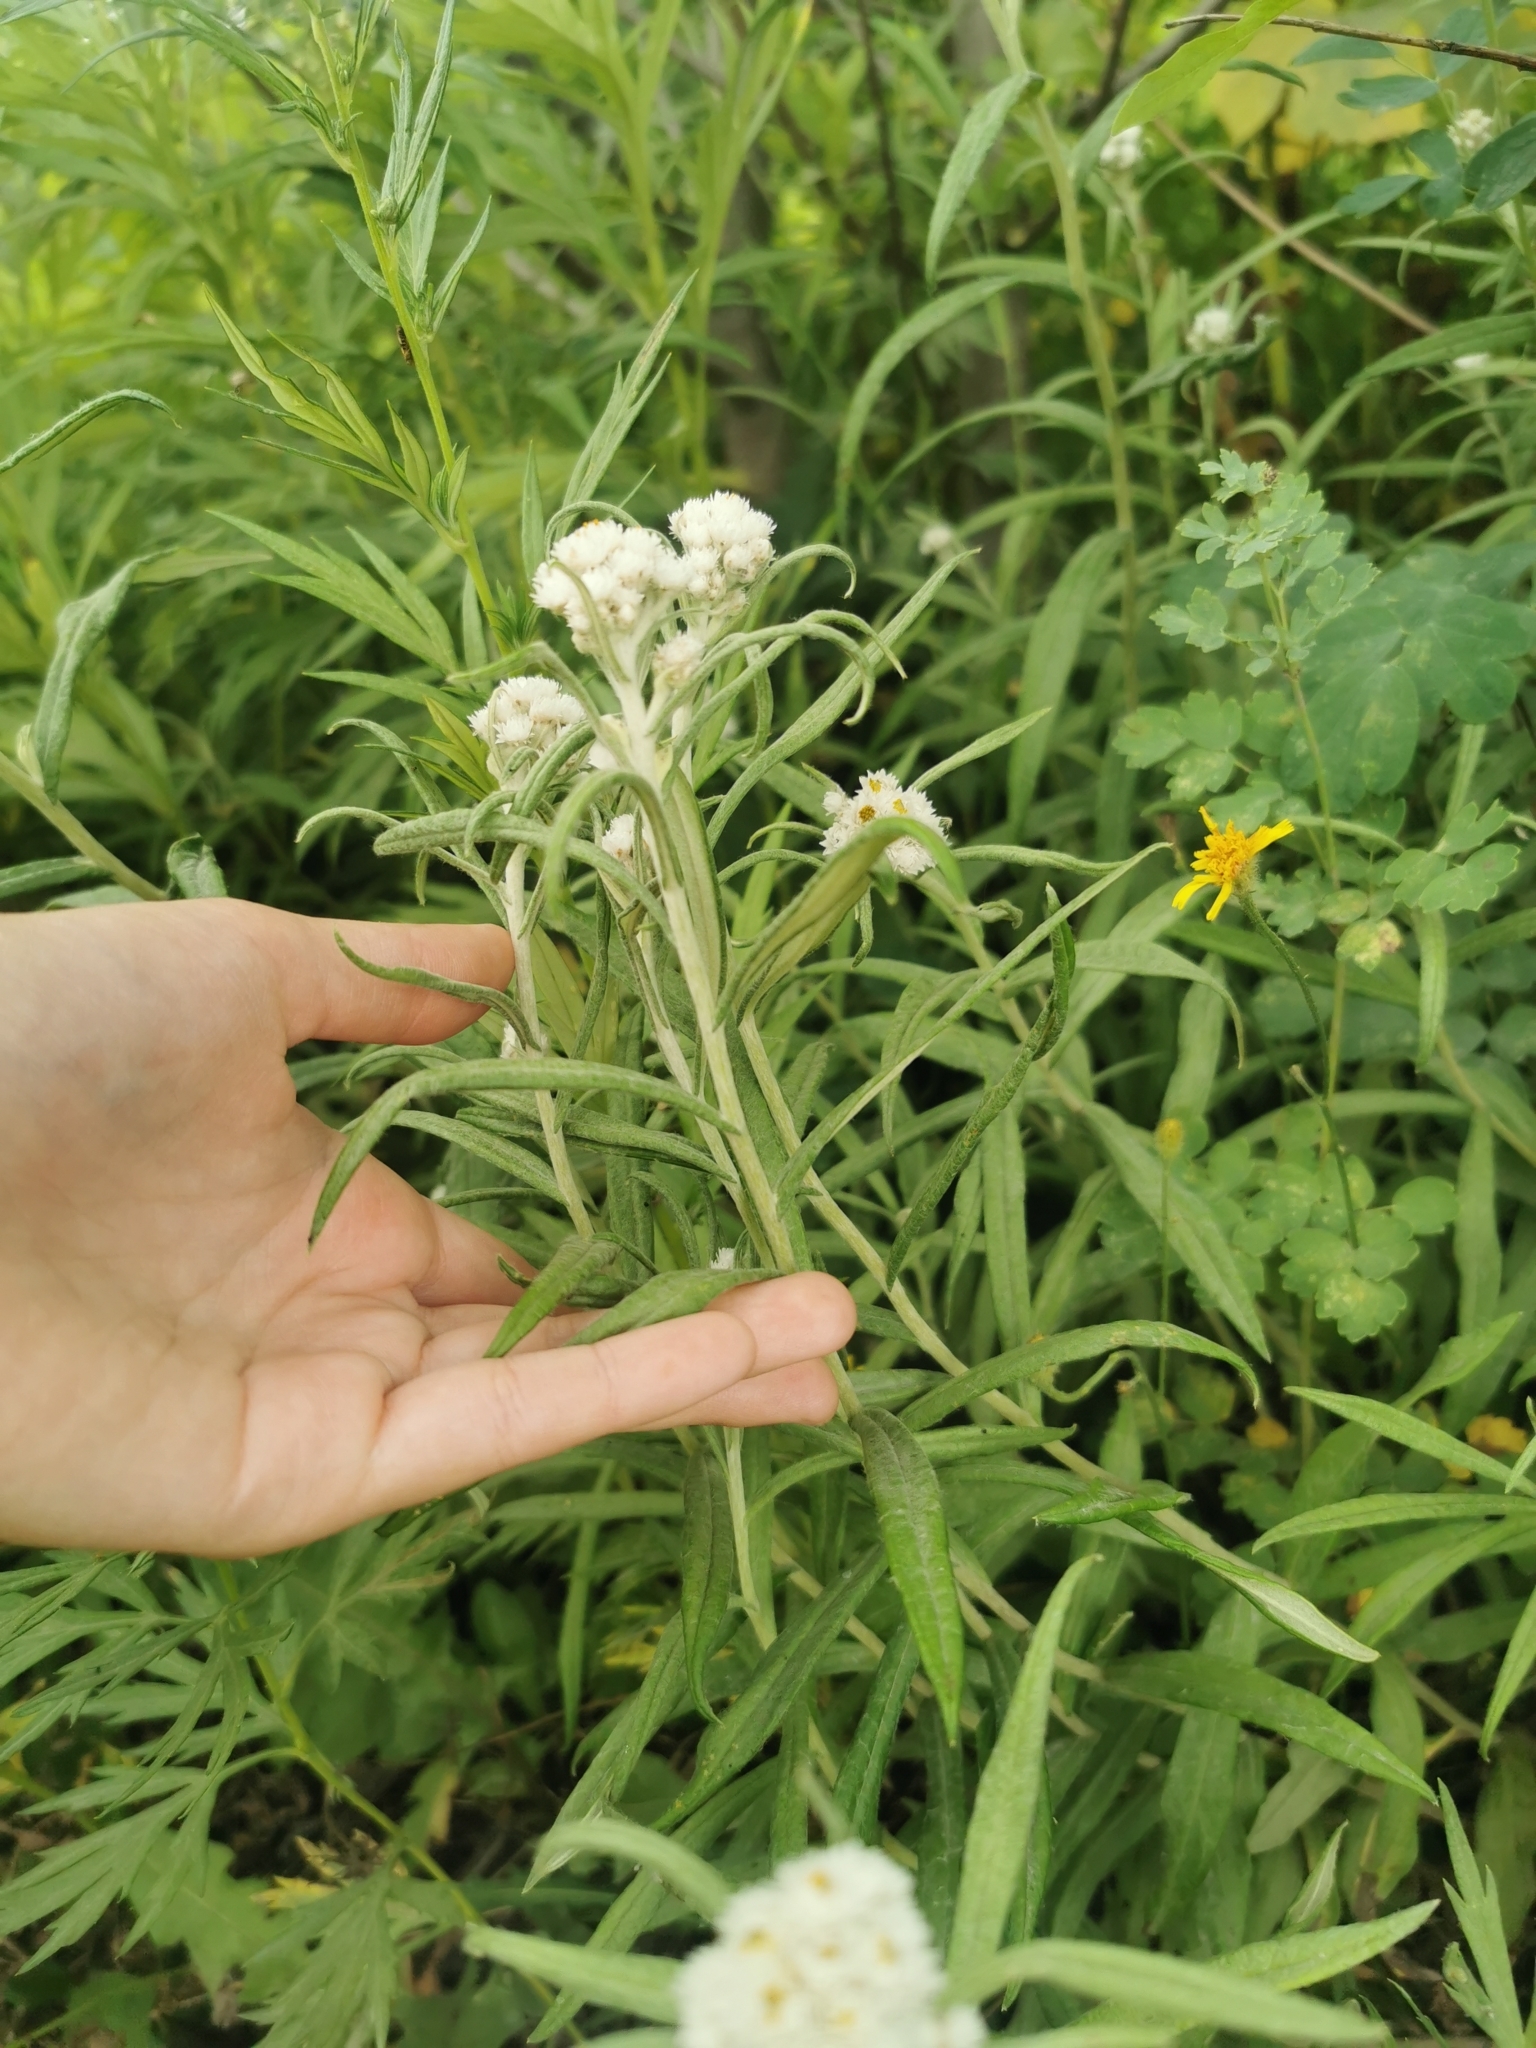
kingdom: Plantae
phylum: Tracheophyta
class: Magnoliopsida
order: Asterales
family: Asteraceae
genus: Anaphalis
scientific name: Anaphalis margaritacea
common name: Pearly everlasting
